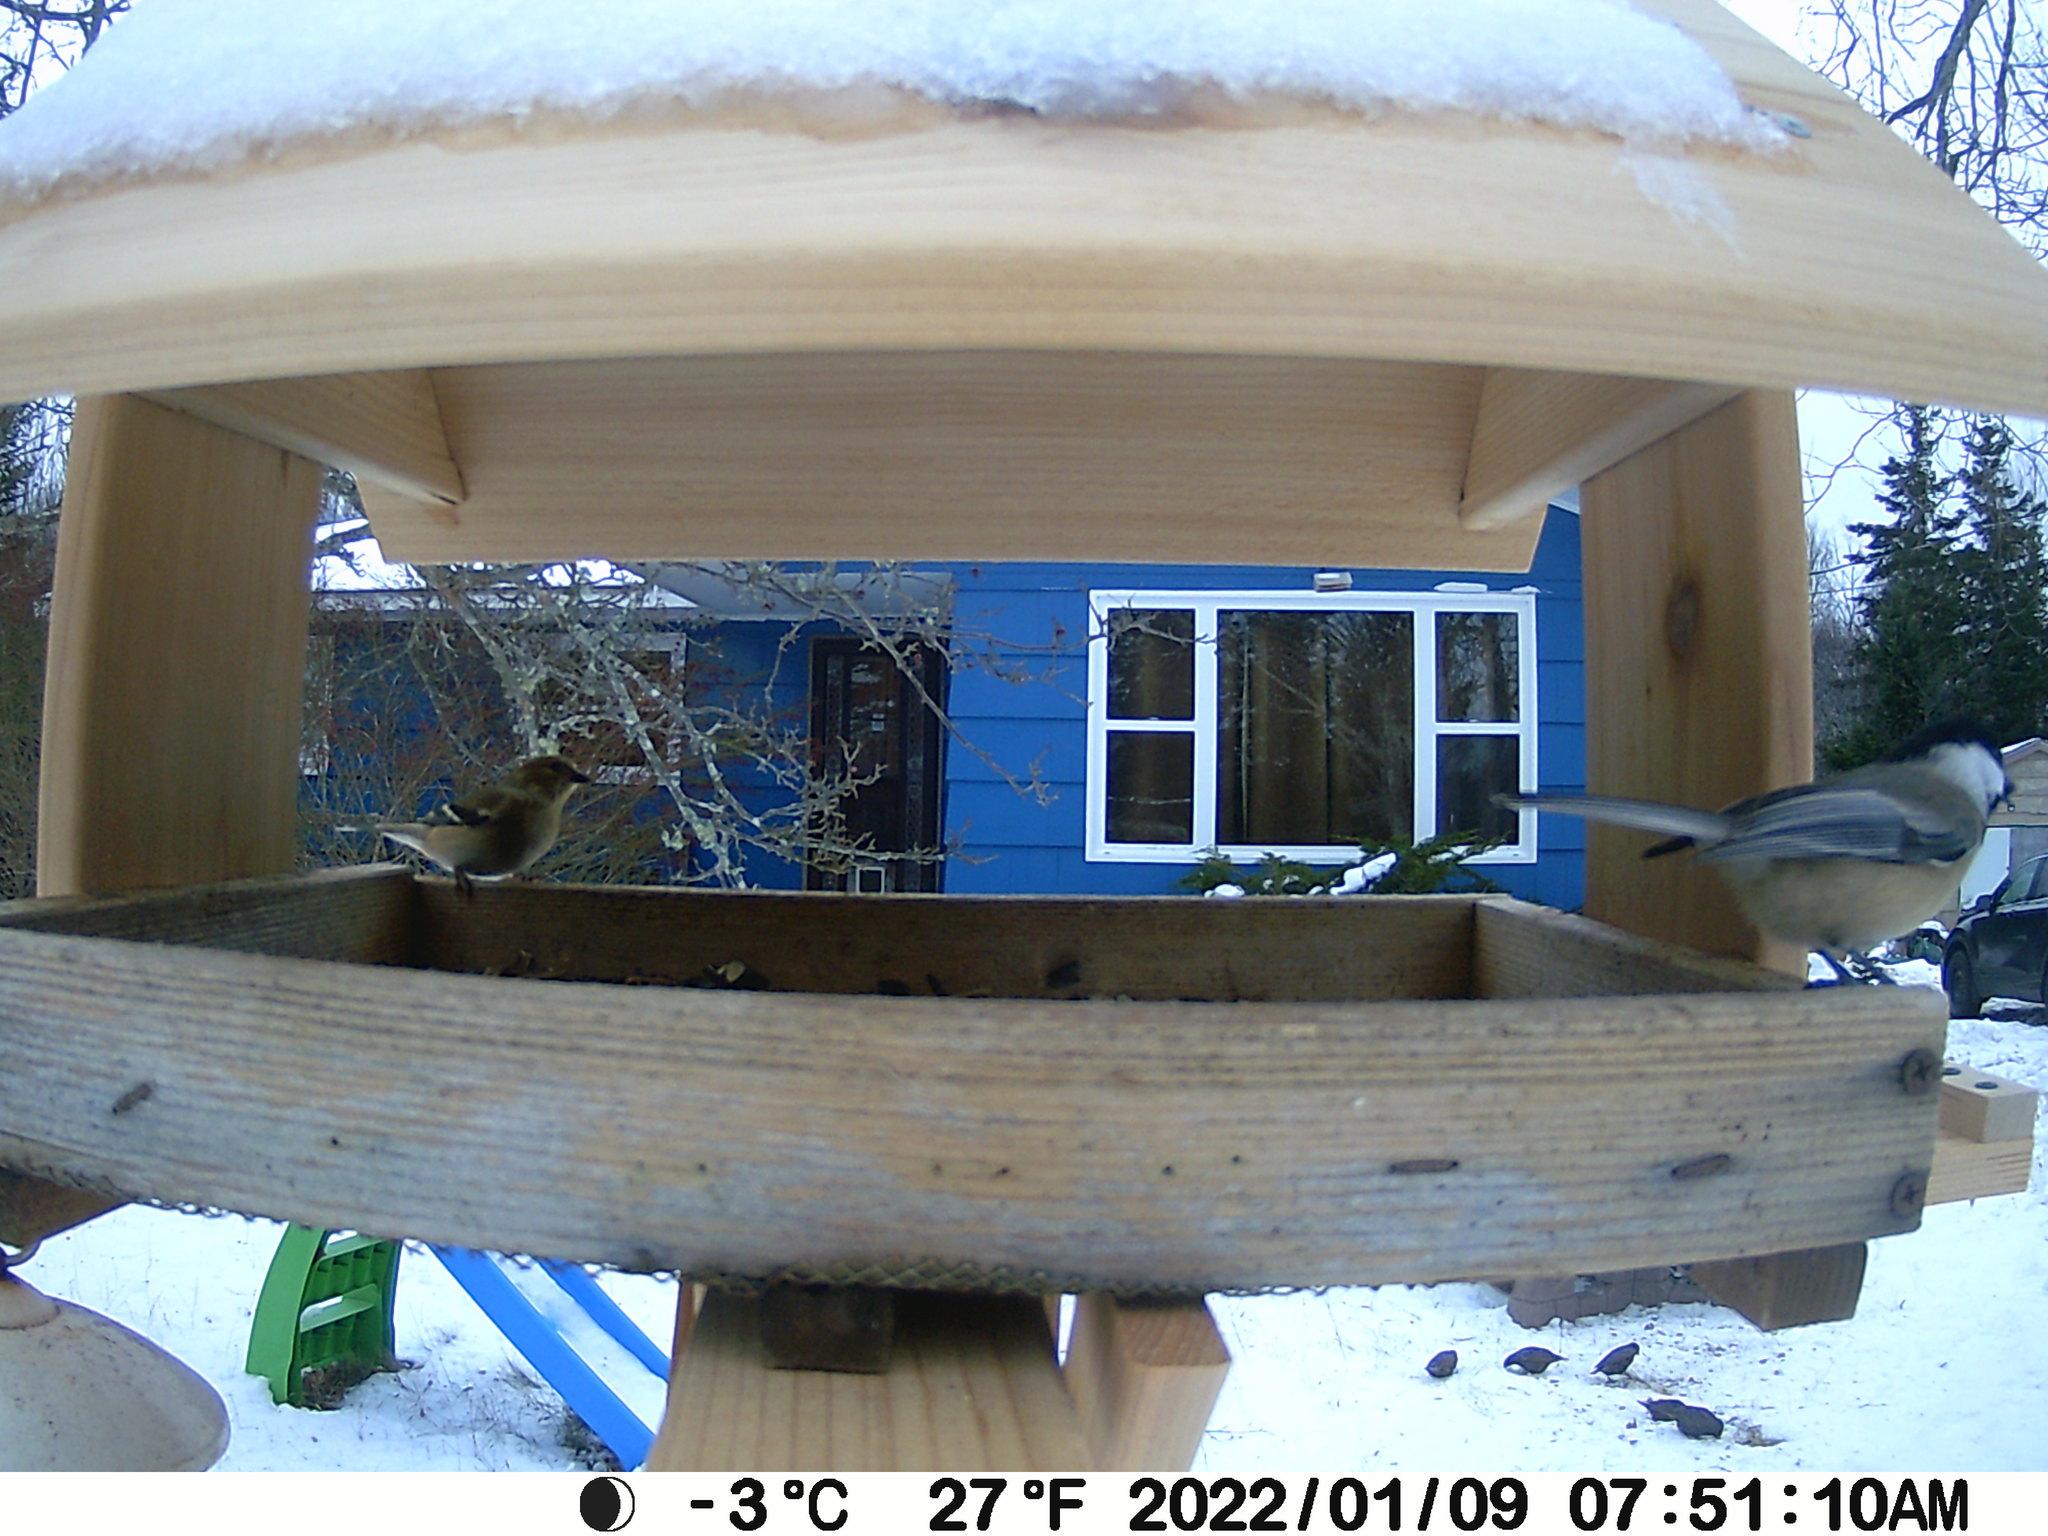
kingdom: Animalia
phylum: Chordata
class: Aves
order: Passeriformes
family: Fringillidae
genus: Spinus
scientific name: Spinus tristis
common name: American goldfinch
